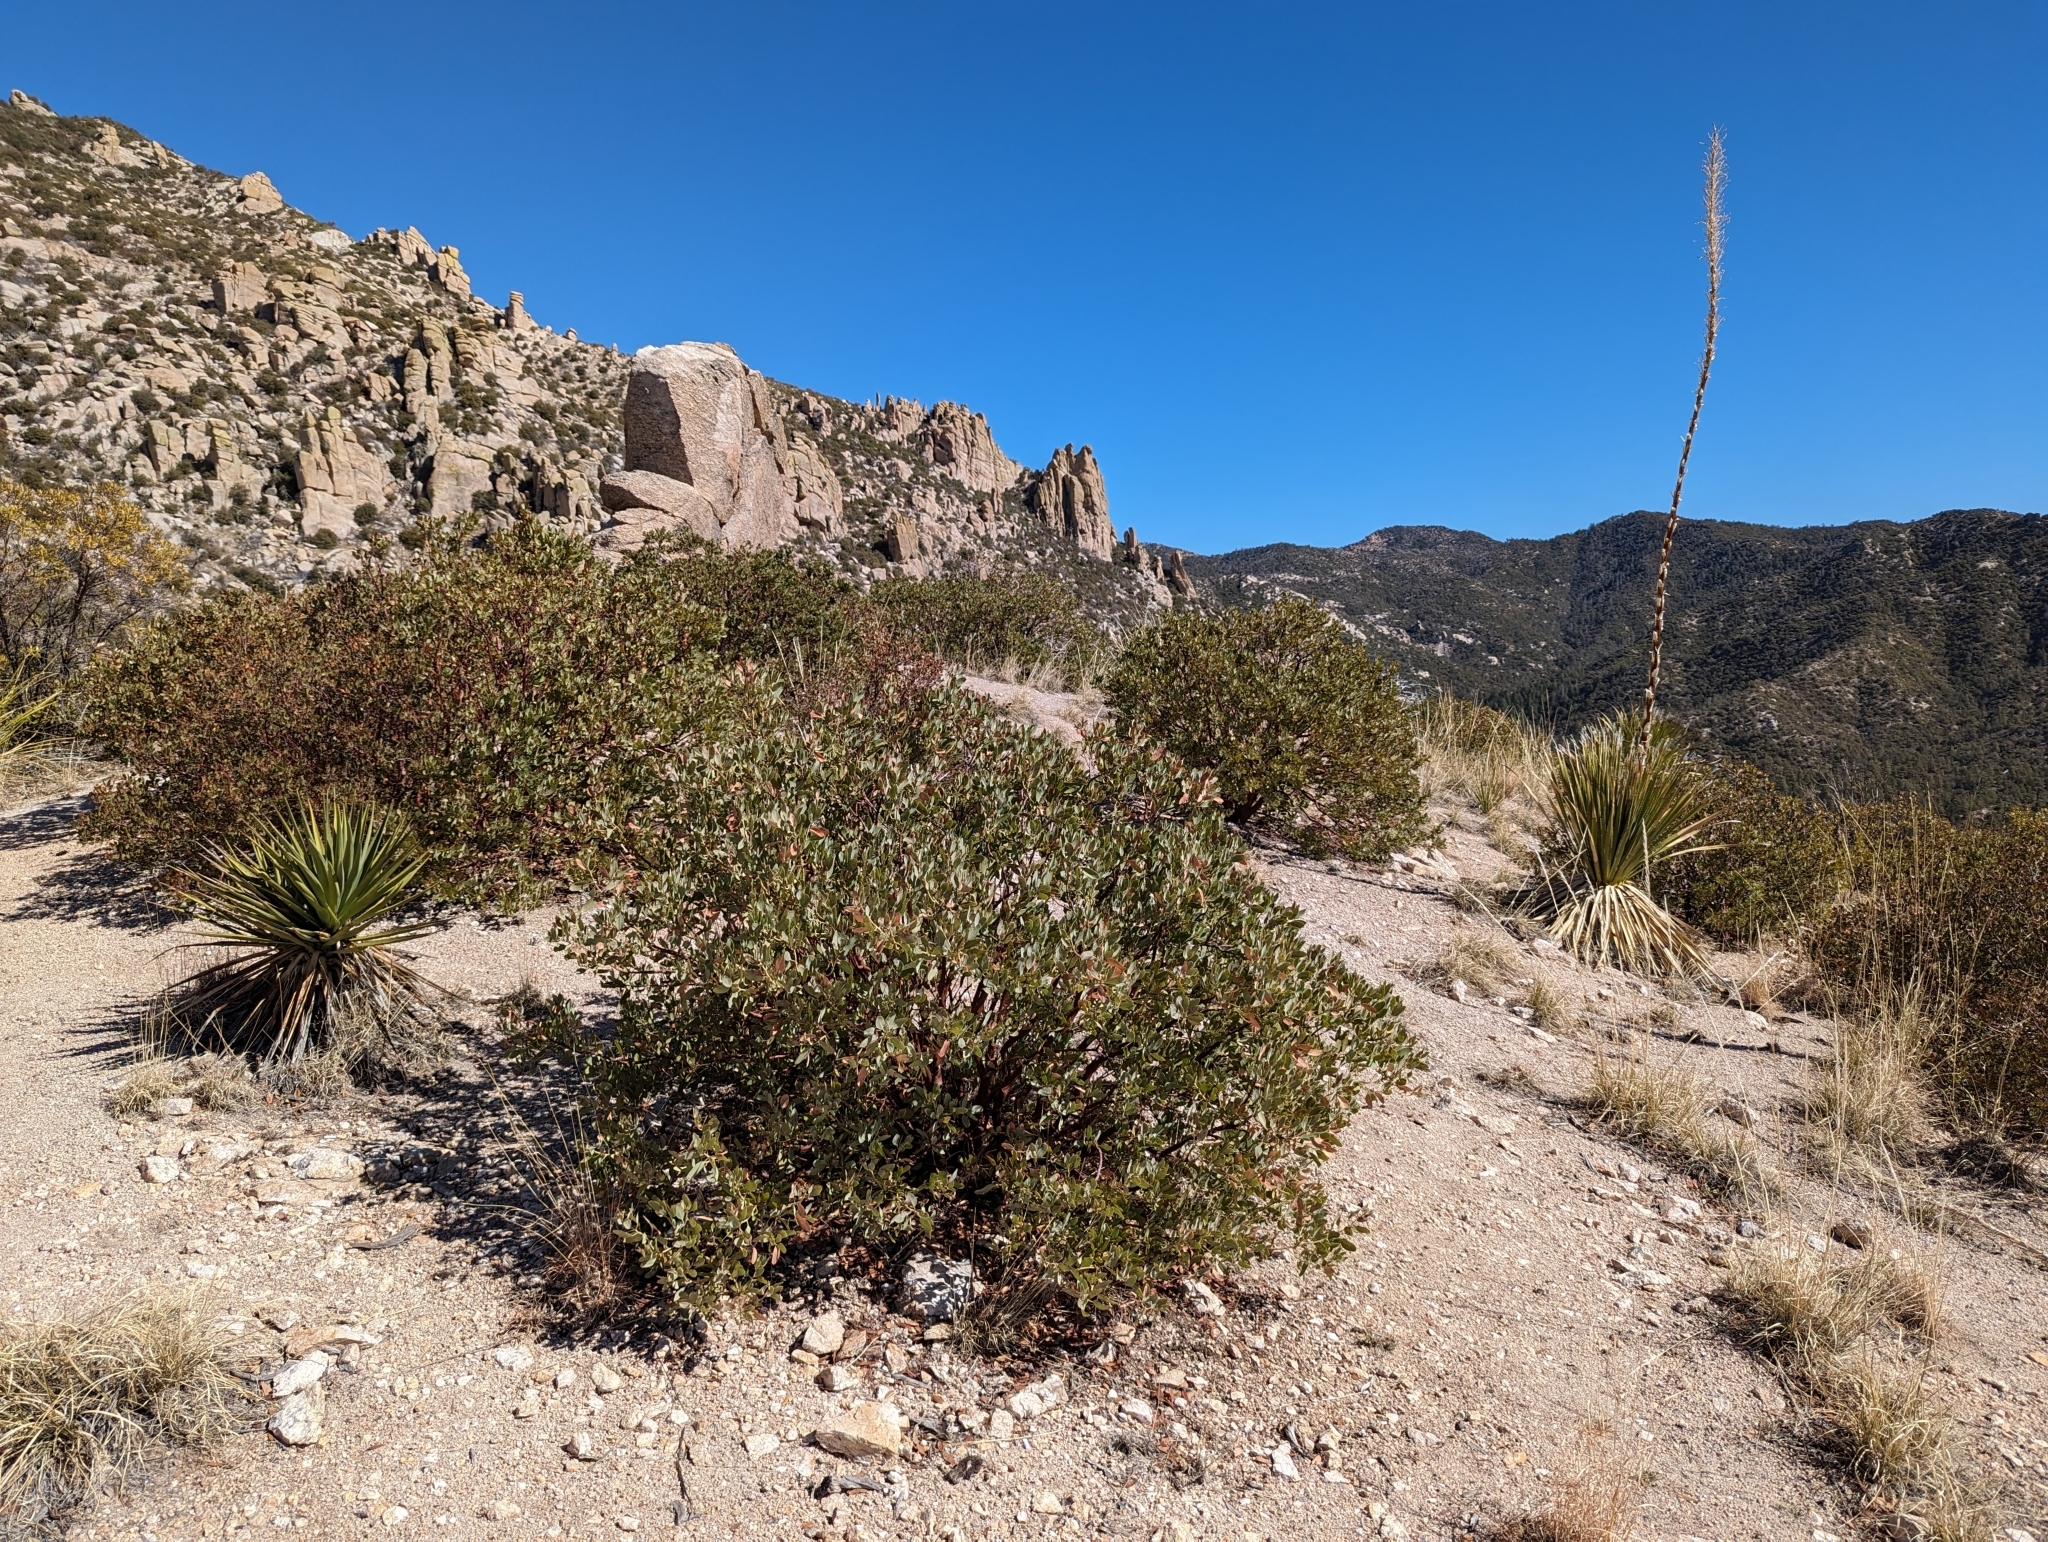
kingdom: Plantae
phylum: Tracheophyta
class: Magnoliopsida
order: Ericales
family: Ericaceae
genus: Arctostaphylos
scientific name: Arctostaphylos pungens
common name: Mexican manzanita
